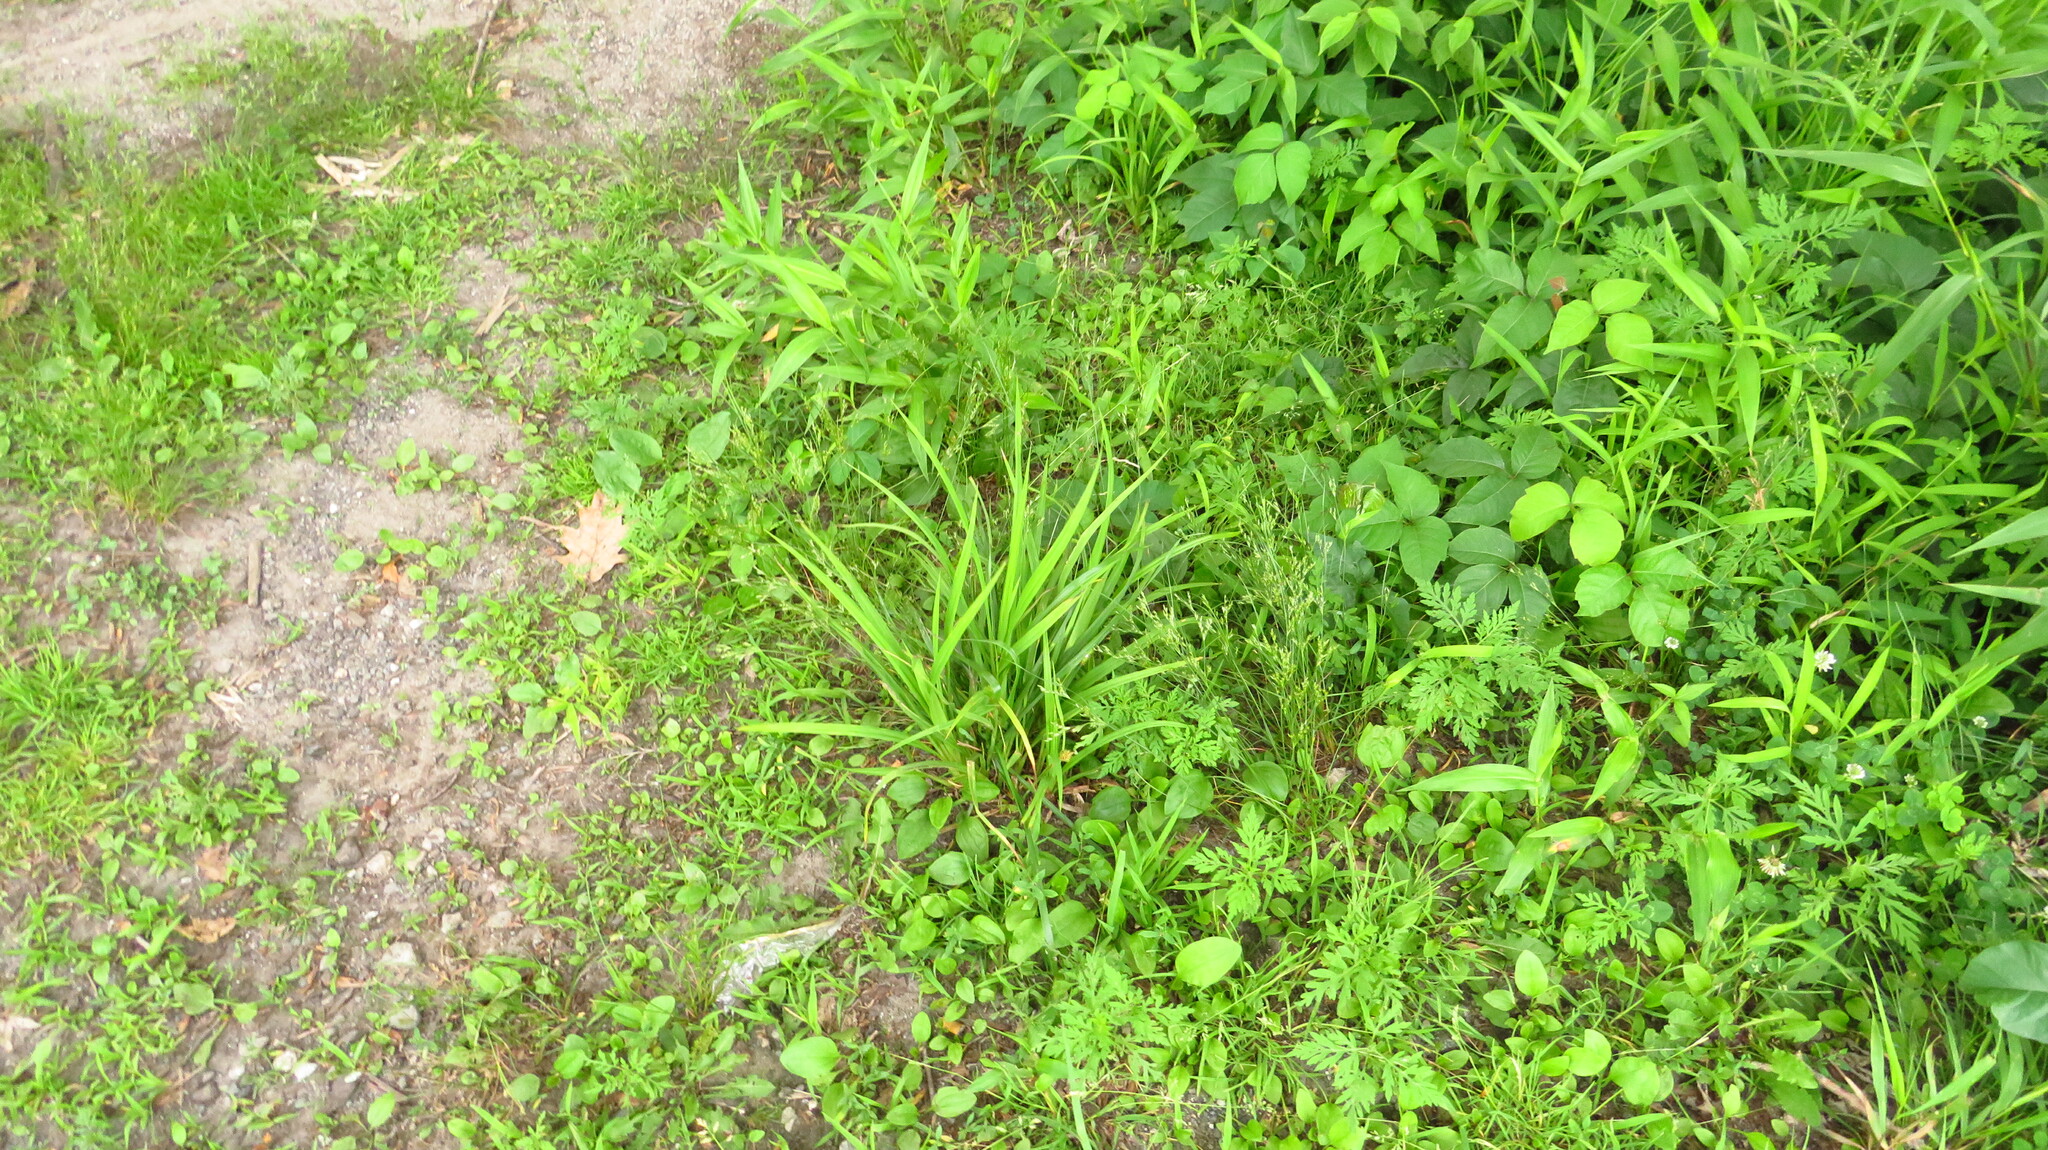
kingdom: Plantae
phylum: Tracheophyta
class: Liliopsida
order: Poales
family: Cyperaceae
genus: Carex
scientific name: Carex typhina
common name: Cattail sedge
